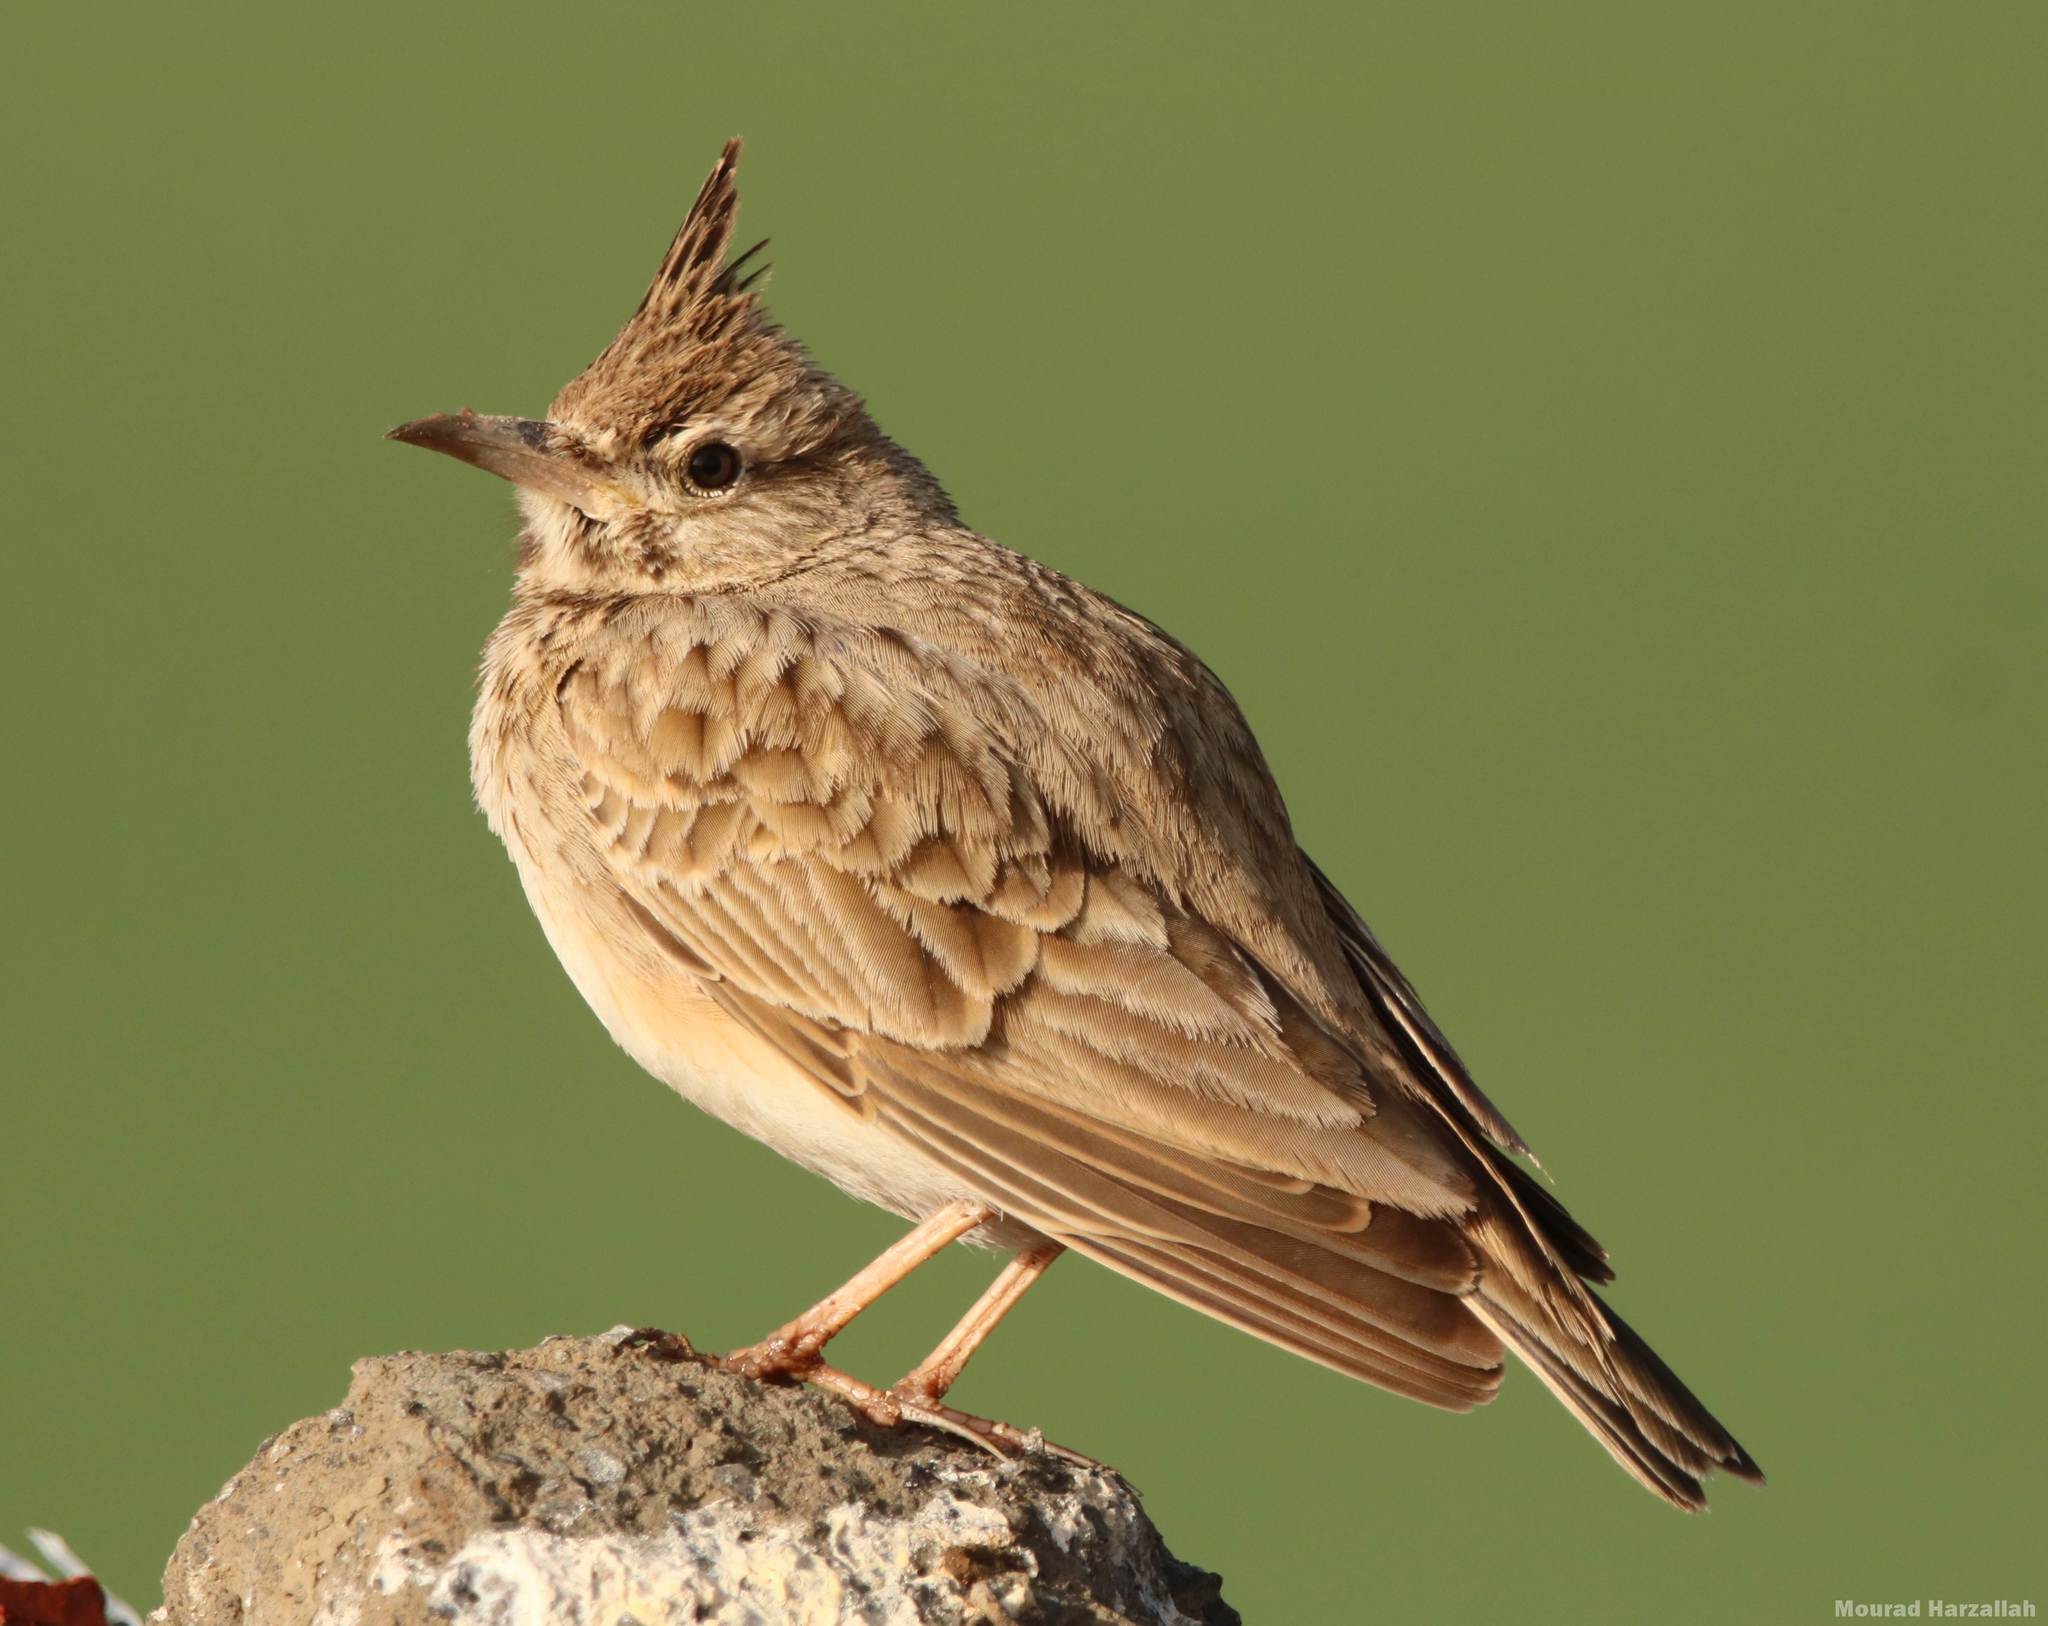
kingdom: Animalia
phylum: Chordata
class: Aves
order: Passeriformes
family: Alaudidae
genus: Galerida
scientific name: Galerida cristata
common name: Crested lark
